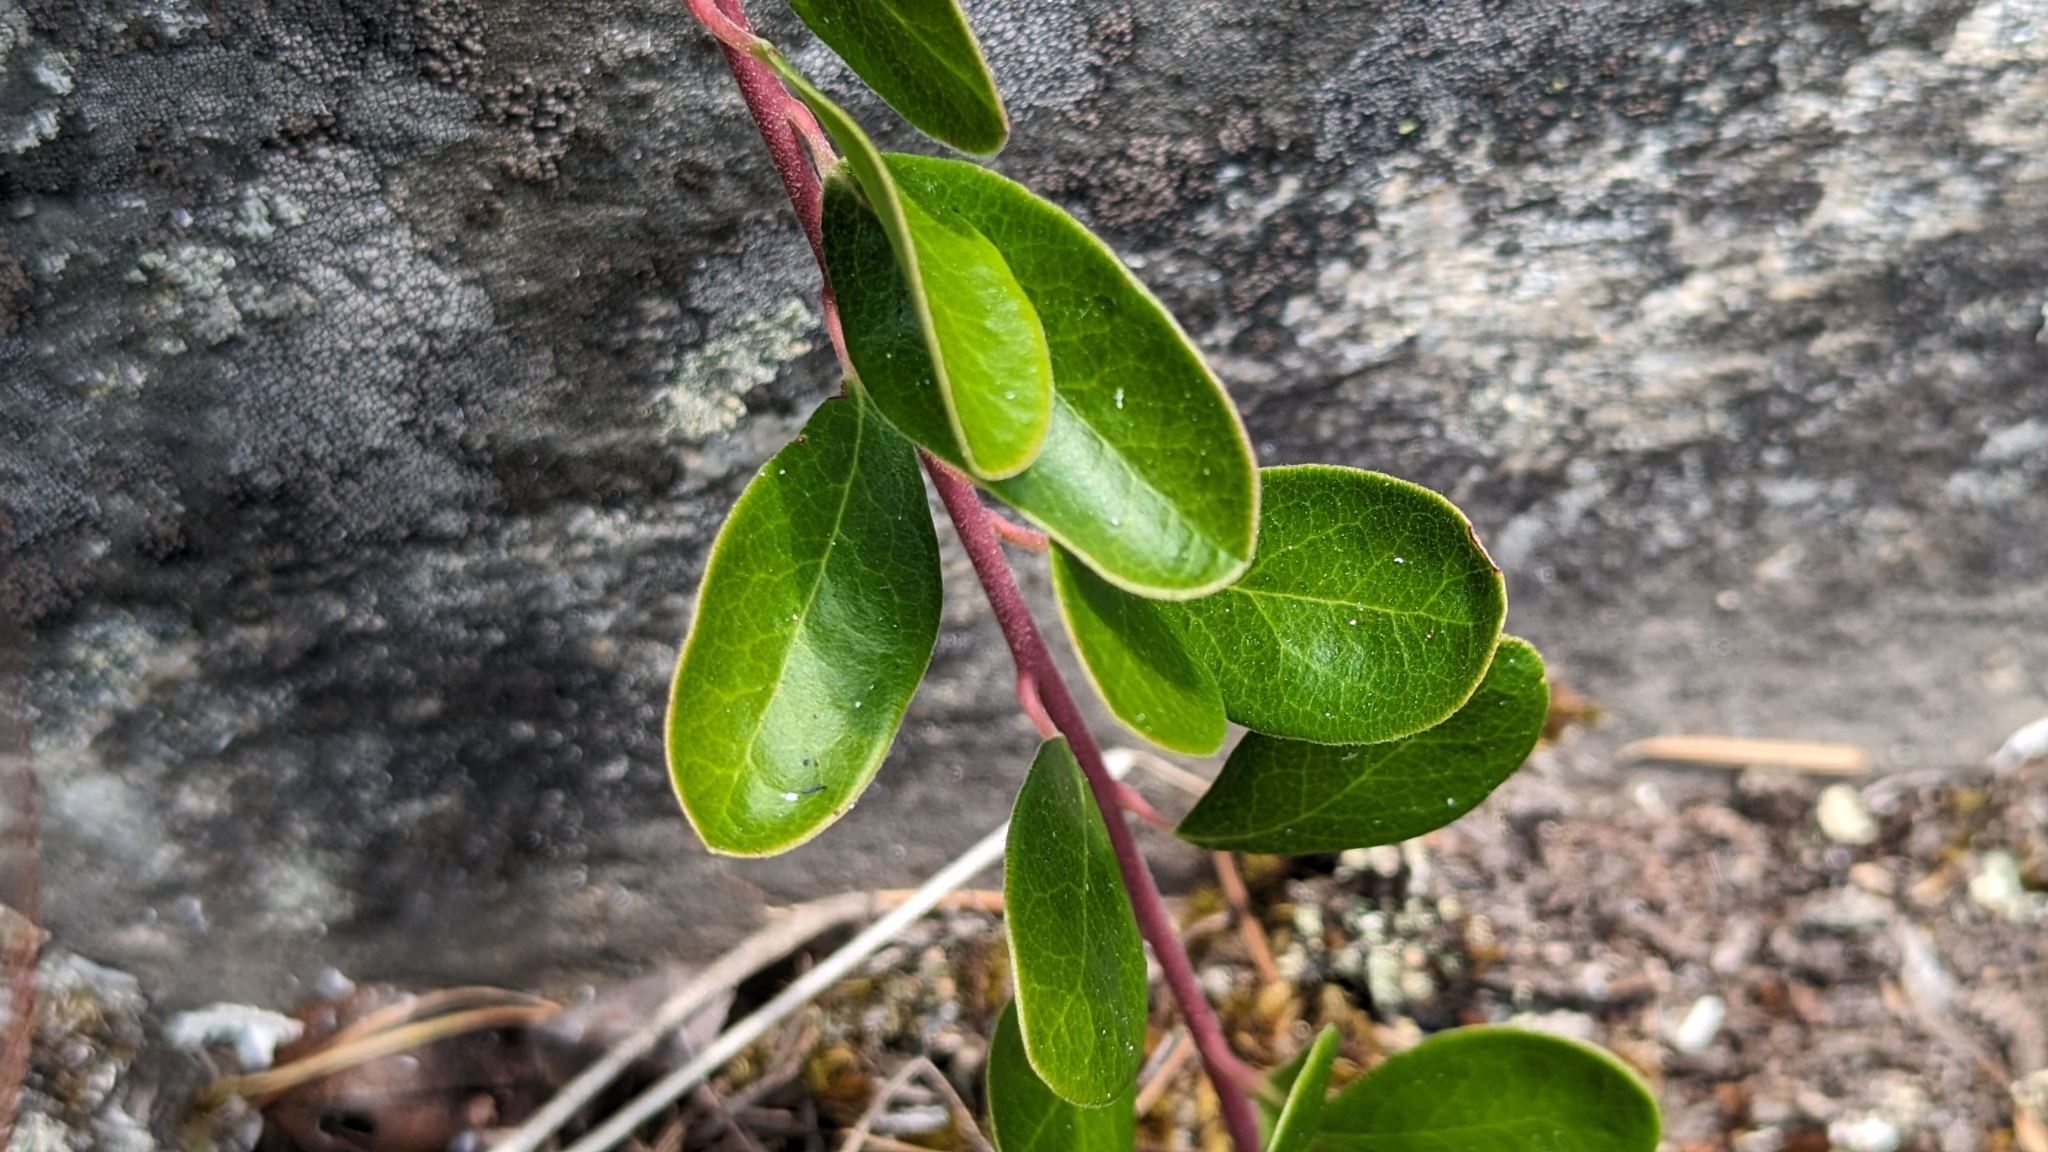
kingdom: Plantae
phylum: Tracheophyta
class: Magnoliopsida
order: Ericales
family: Ericaceae
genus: Arctostaphylos
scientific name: Arctostaphylos uva-ursi
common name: Bearberry
